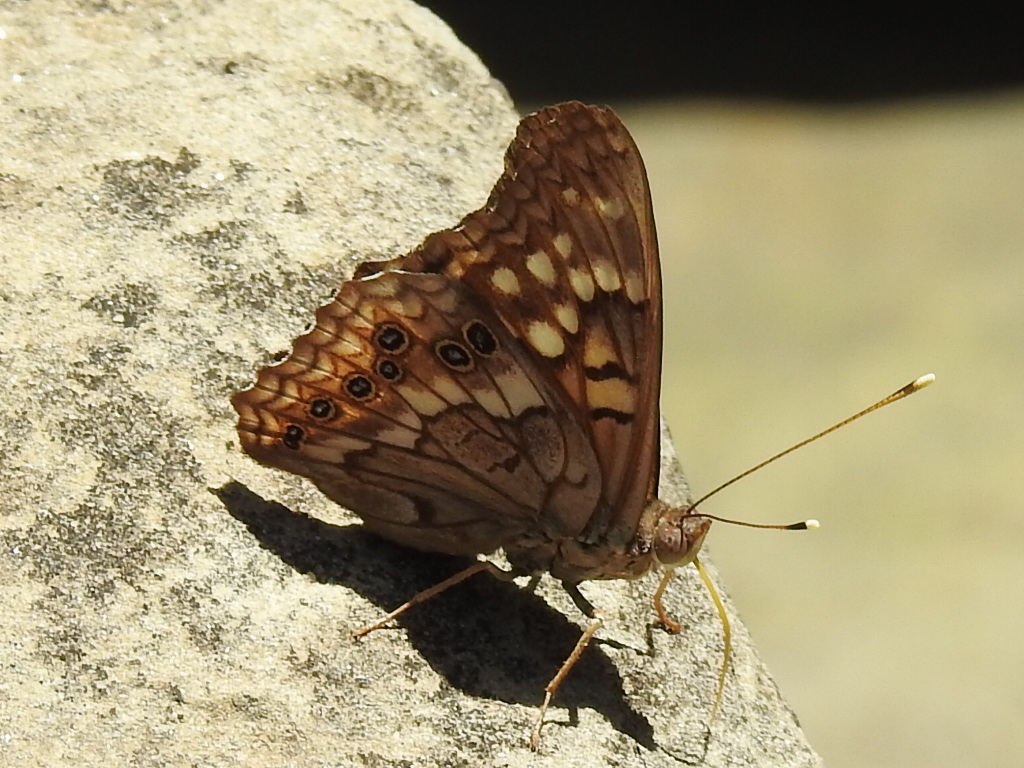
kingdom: Animalia
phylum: Arthropoda
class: Insecta
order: Lepidoptera
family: Nymphalidae
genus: Asterocampa
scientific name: Asterocampa celtis
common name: Hackberry emperor
